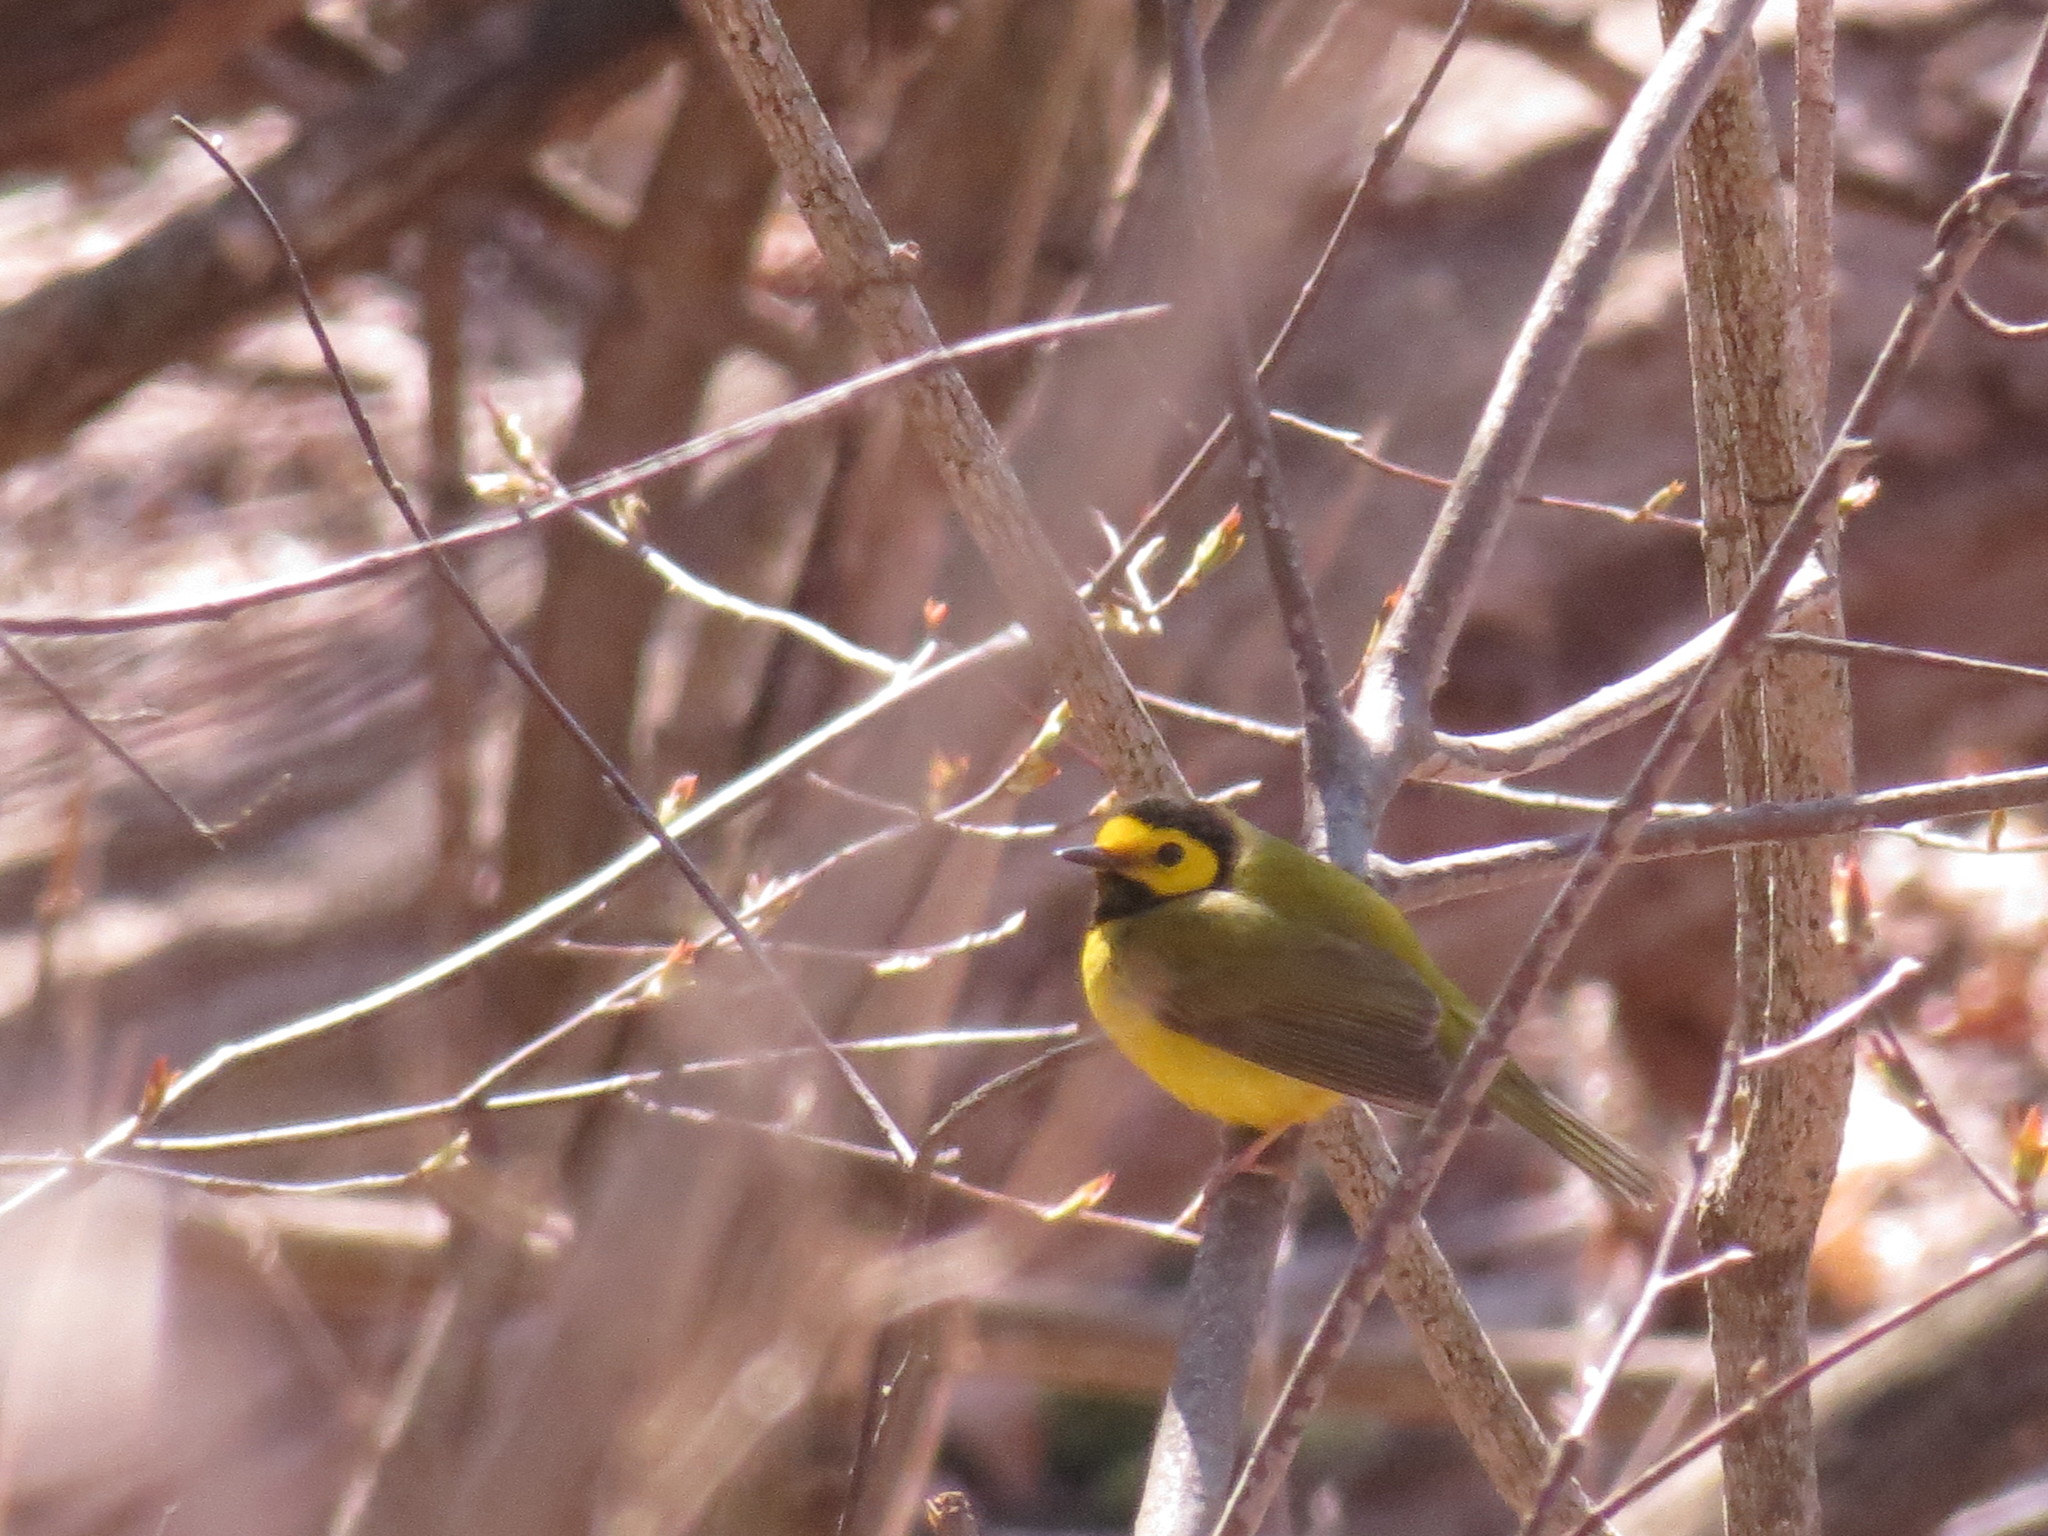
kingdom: Animalia
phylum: Chordata
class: Aves
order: Passeriformes
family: Parulidae
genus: Setophaga
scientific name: Setophaga citrina
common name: Hooded warbler
